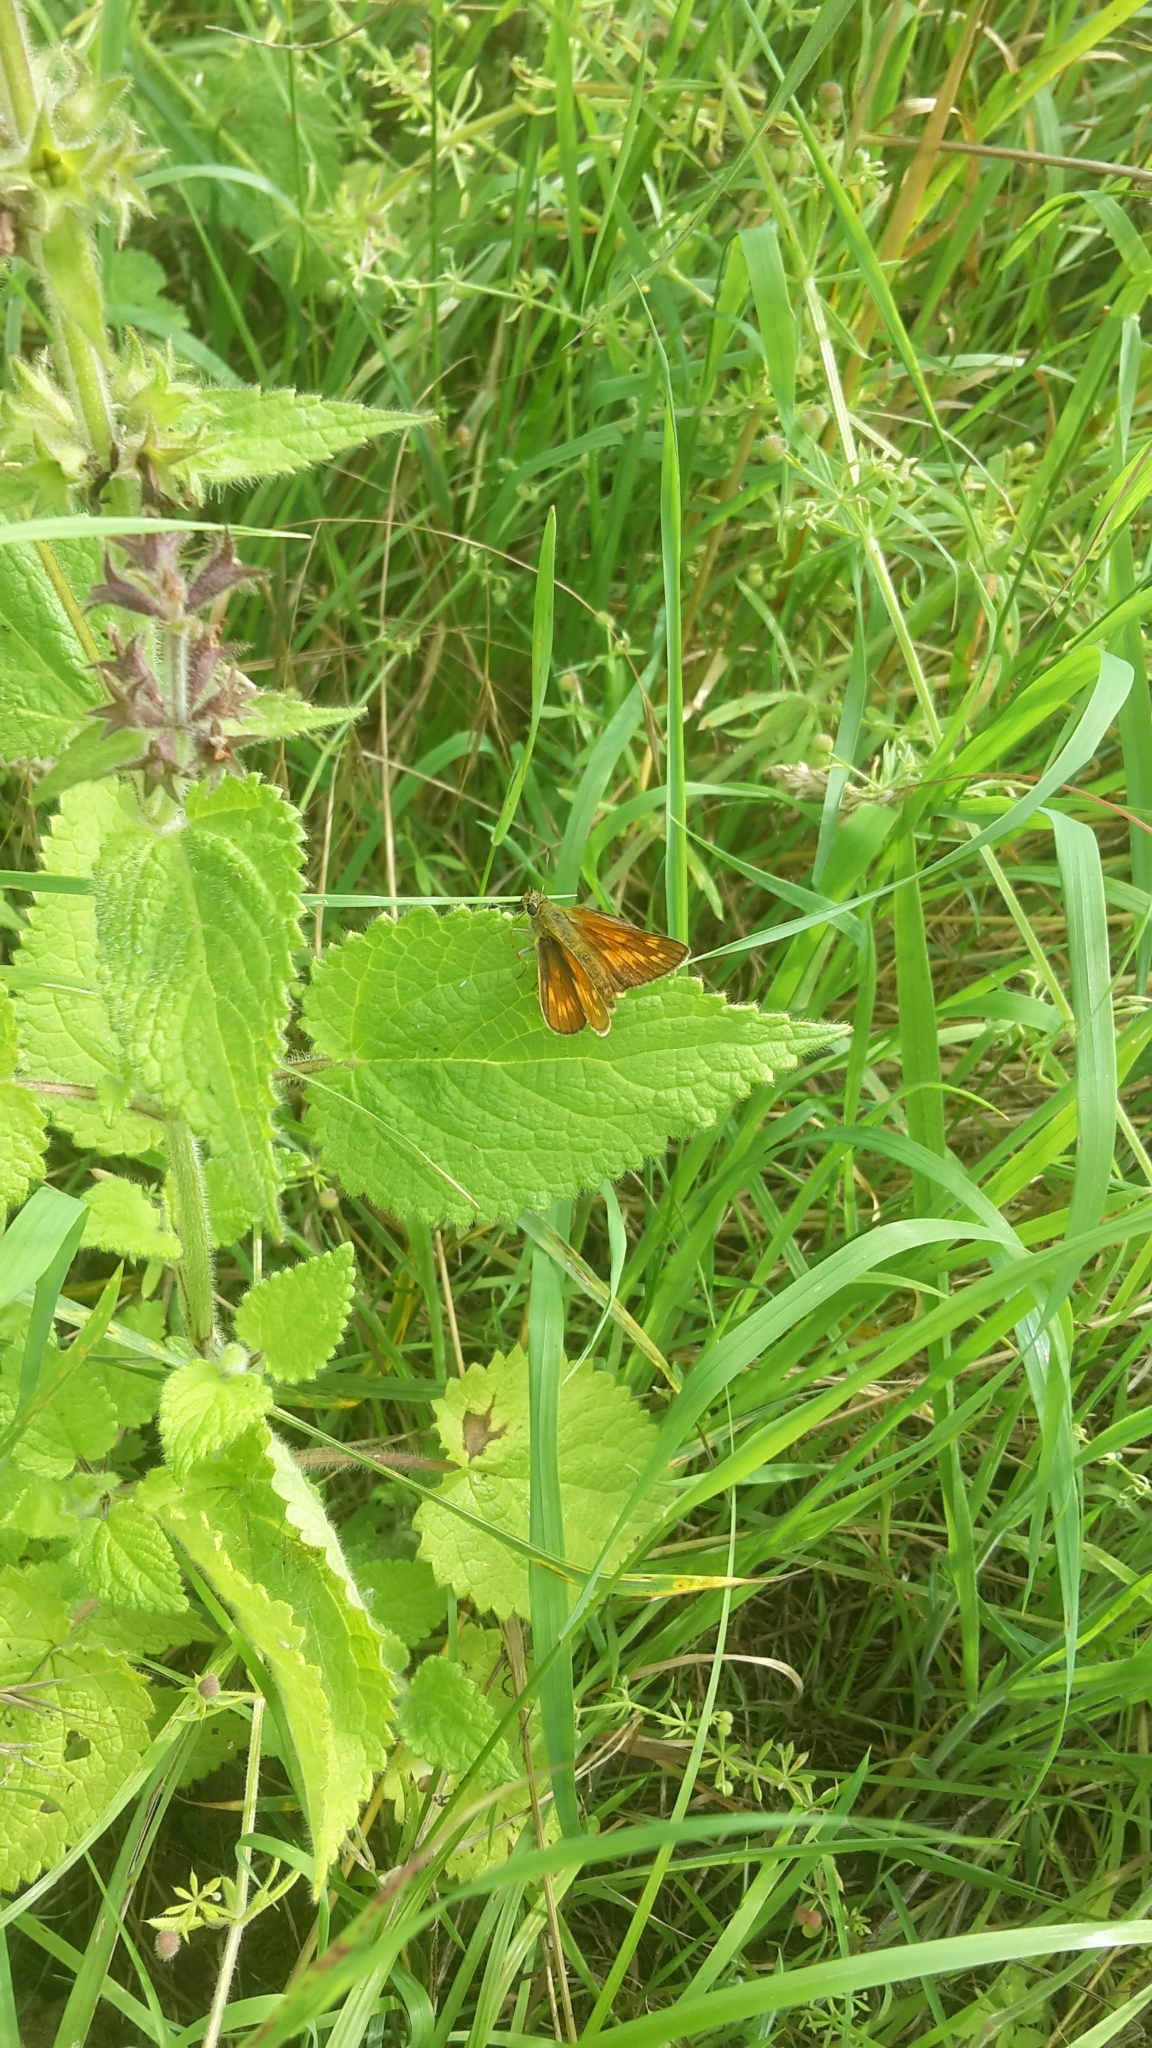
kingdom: Animalia
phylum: Arthropoda
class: Insecta
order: Lepidoptera
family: Hesperiidae
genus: Ochlodes
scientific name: Ochlodes venata
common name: Large skipper
